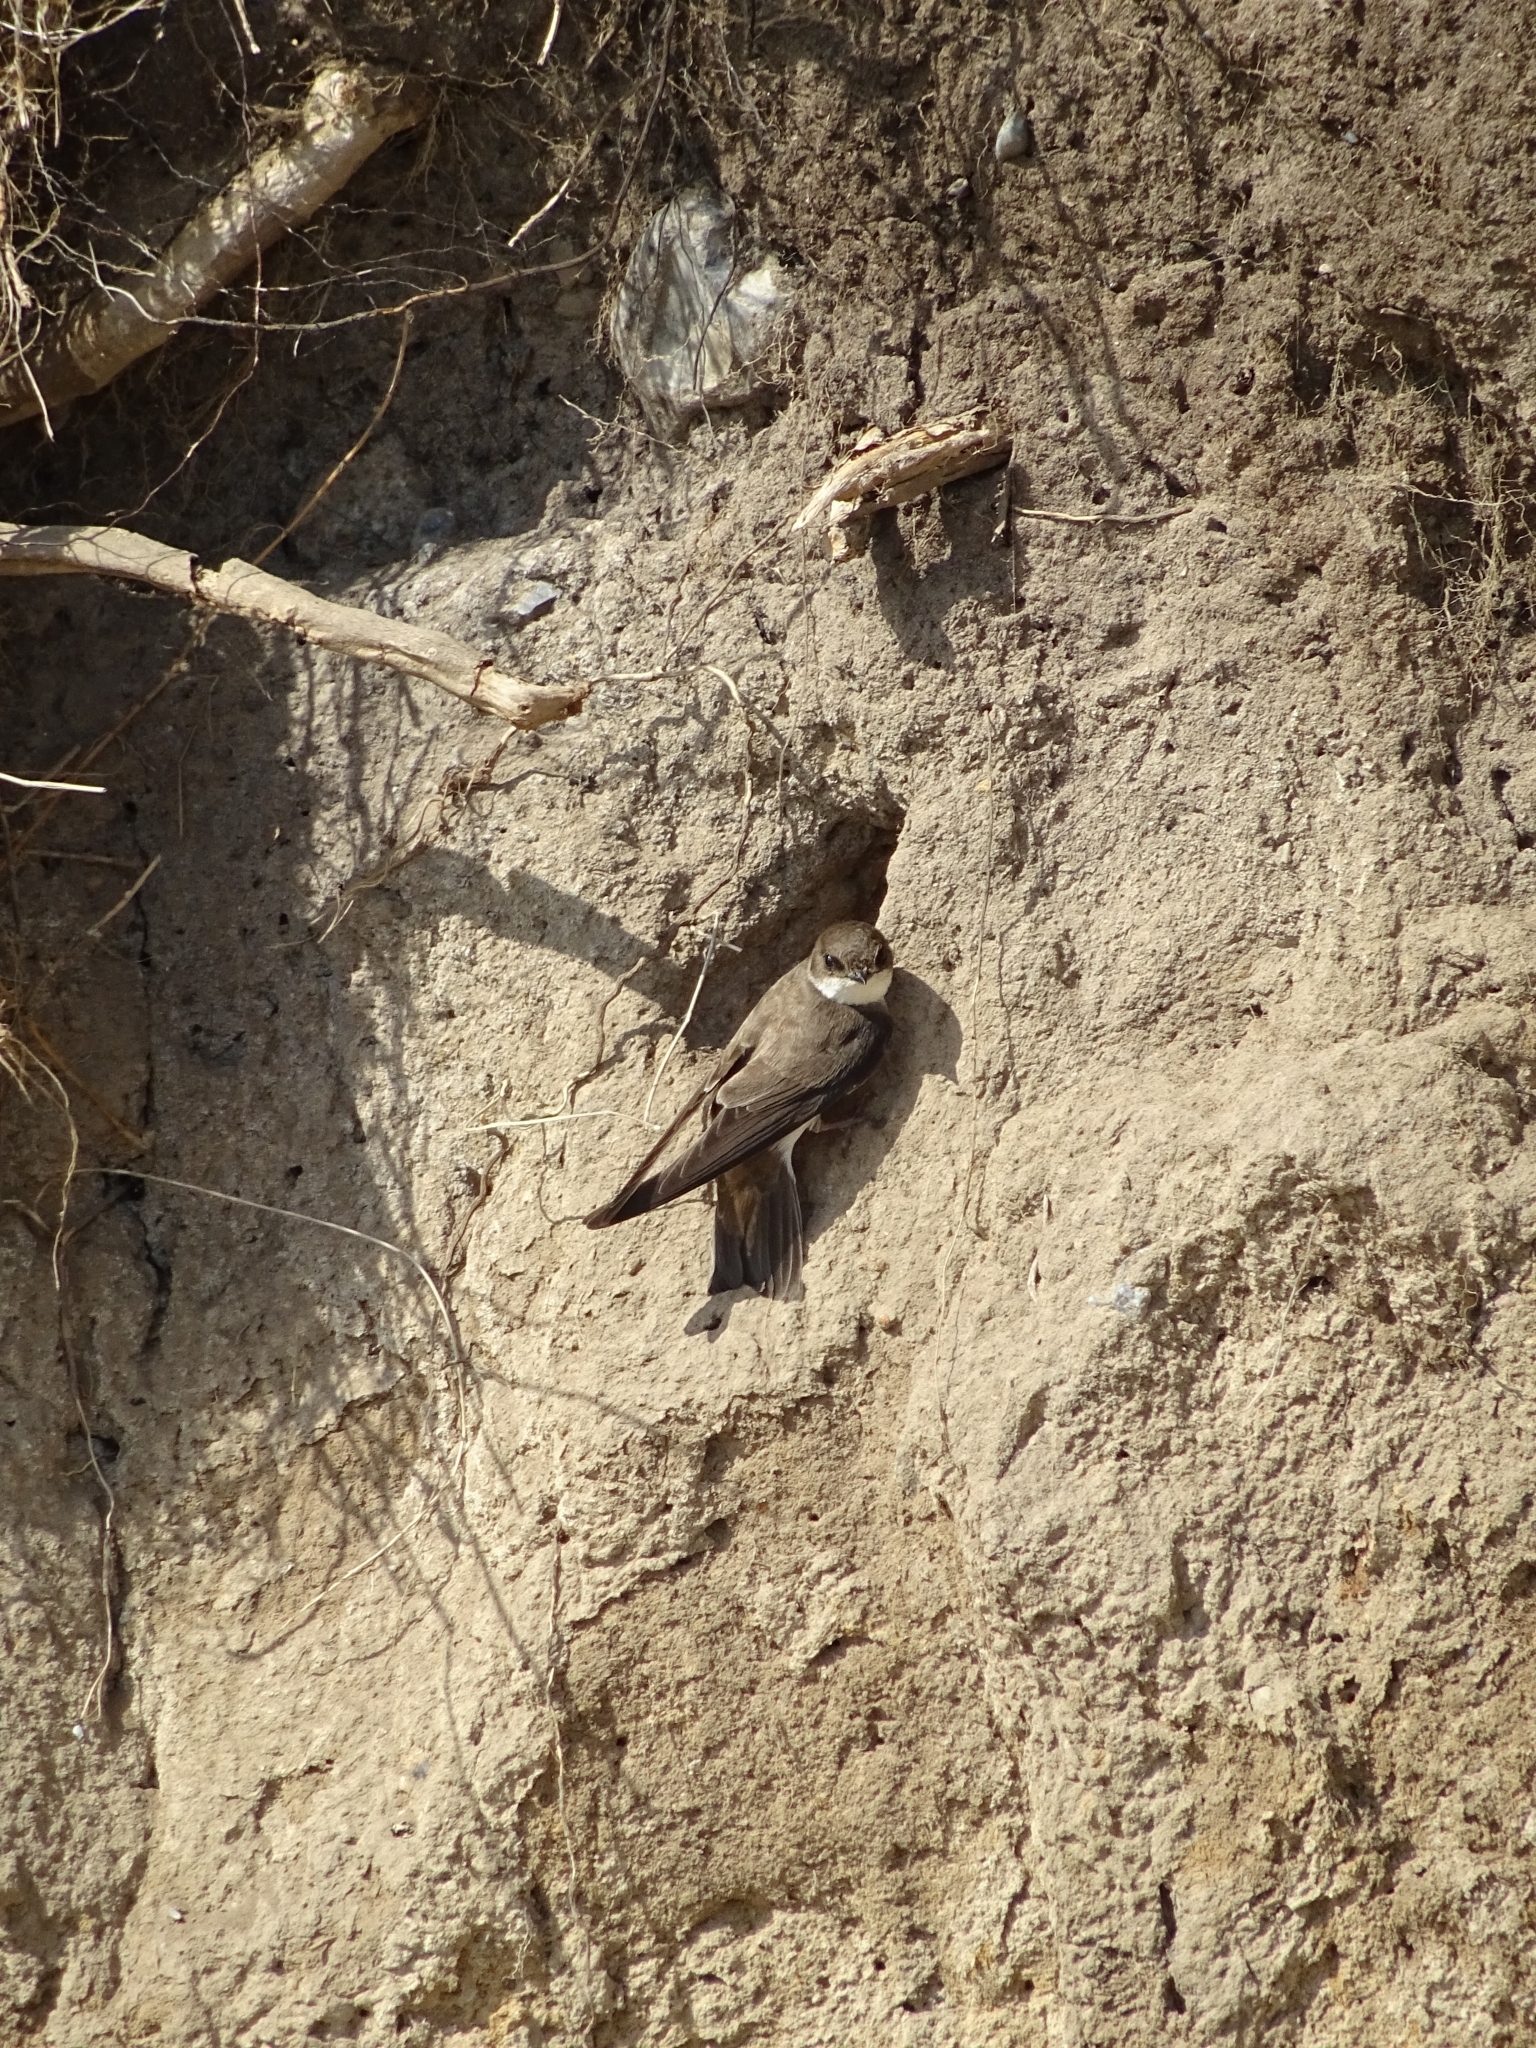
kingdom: Animalia
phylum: Chordata
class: Aves
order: Passeriformes
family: Hirundinidae
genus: Riparia
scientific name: Riparia riparia
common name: Sand martin
